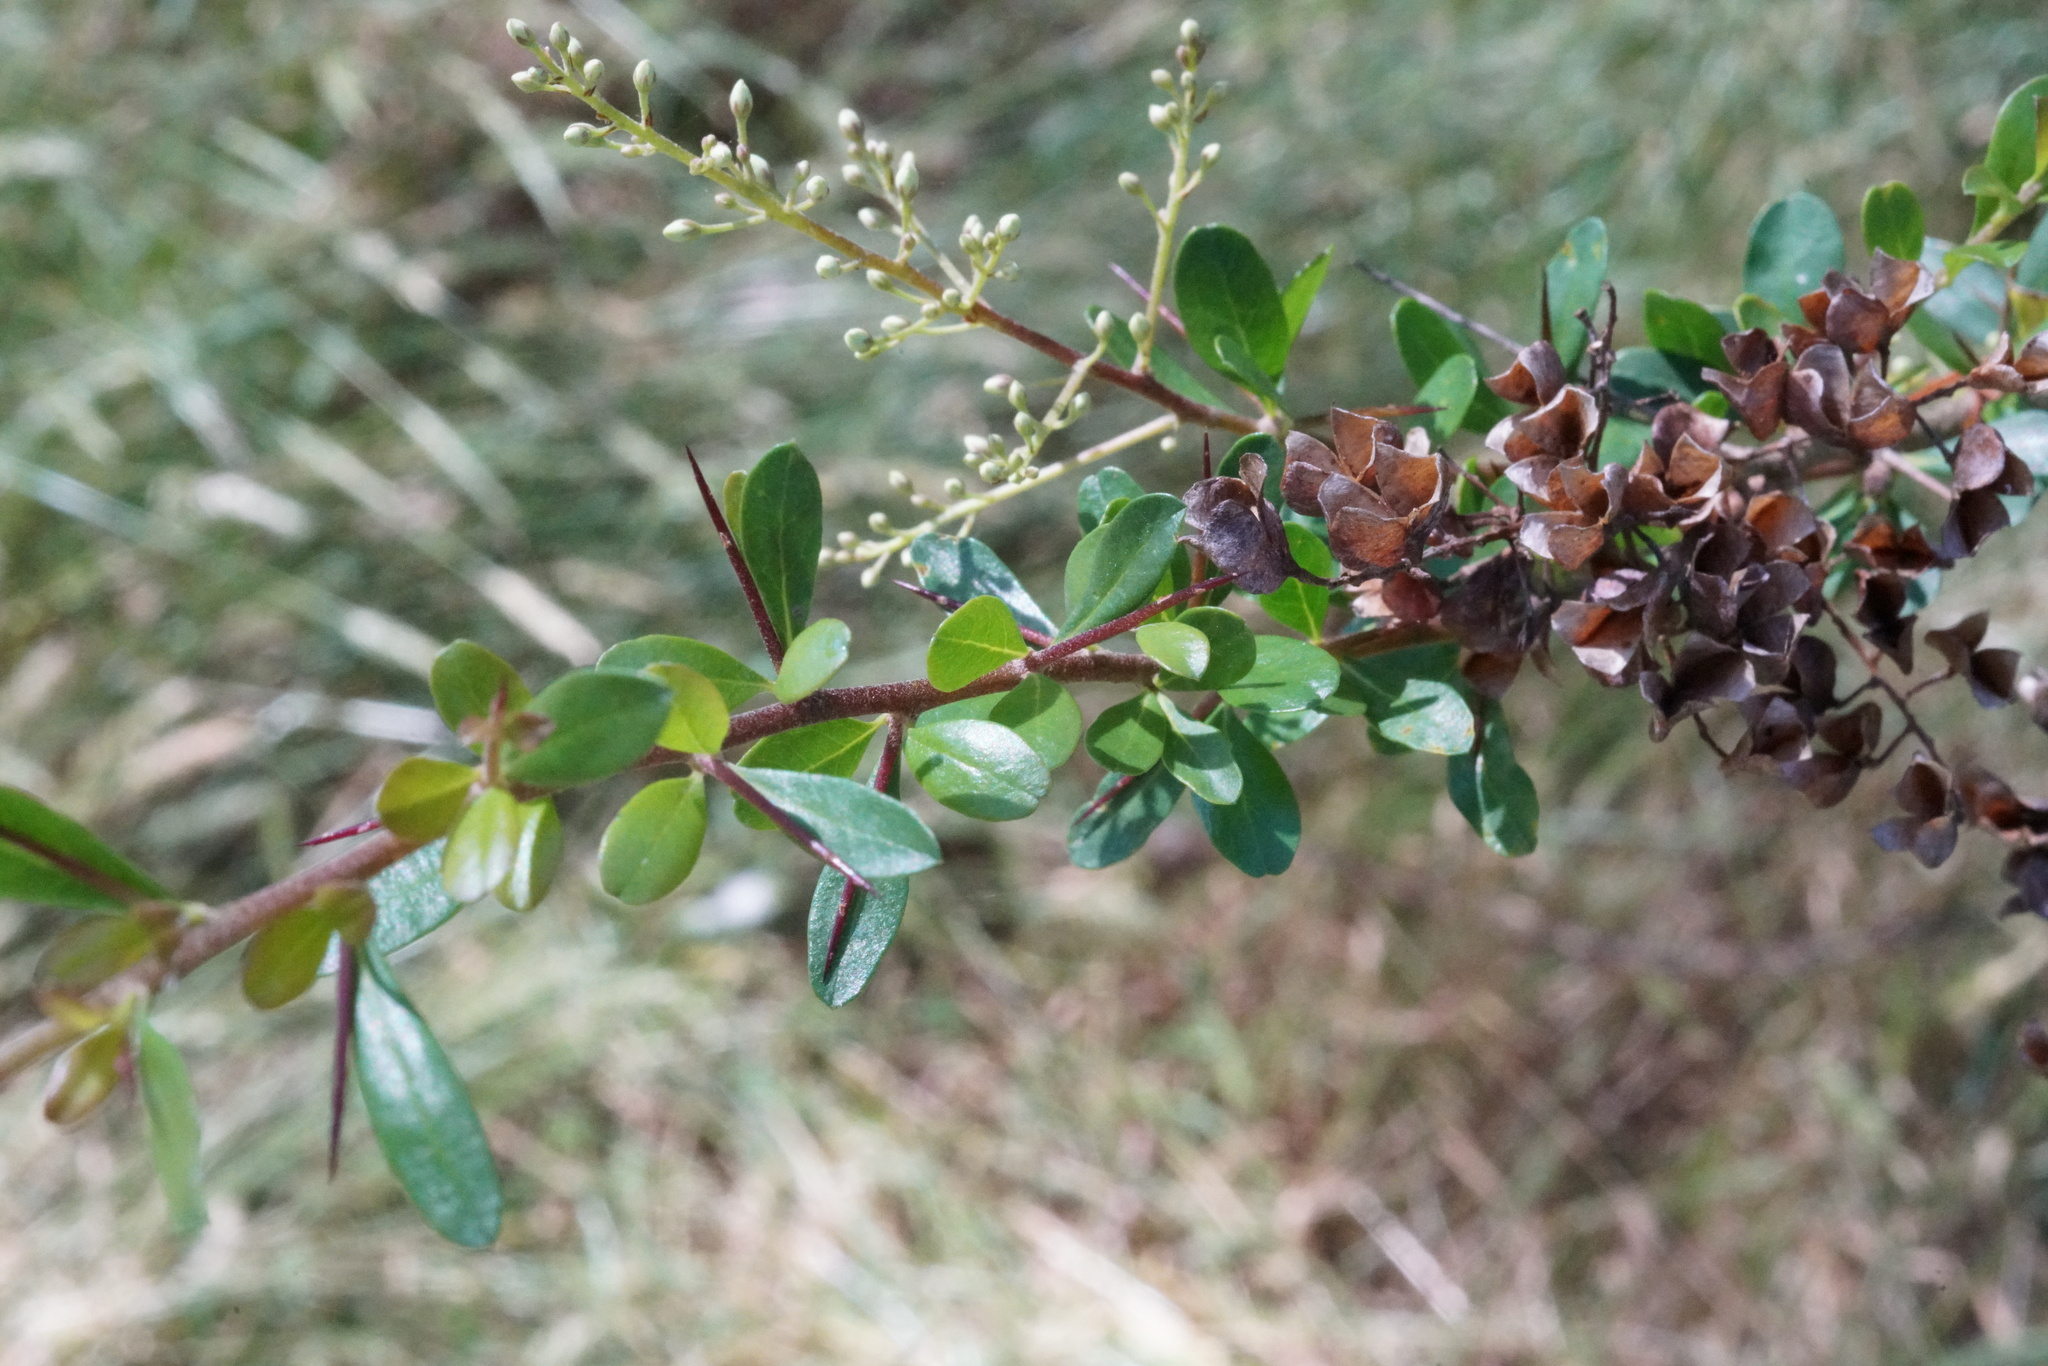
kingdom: Plantae
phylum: Tracheophyta
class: Magnoliopsida
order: Apiales
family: Pittosporaceae
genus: Bursaria
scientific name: Bursaria spinosa
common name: Australian blackthorn
